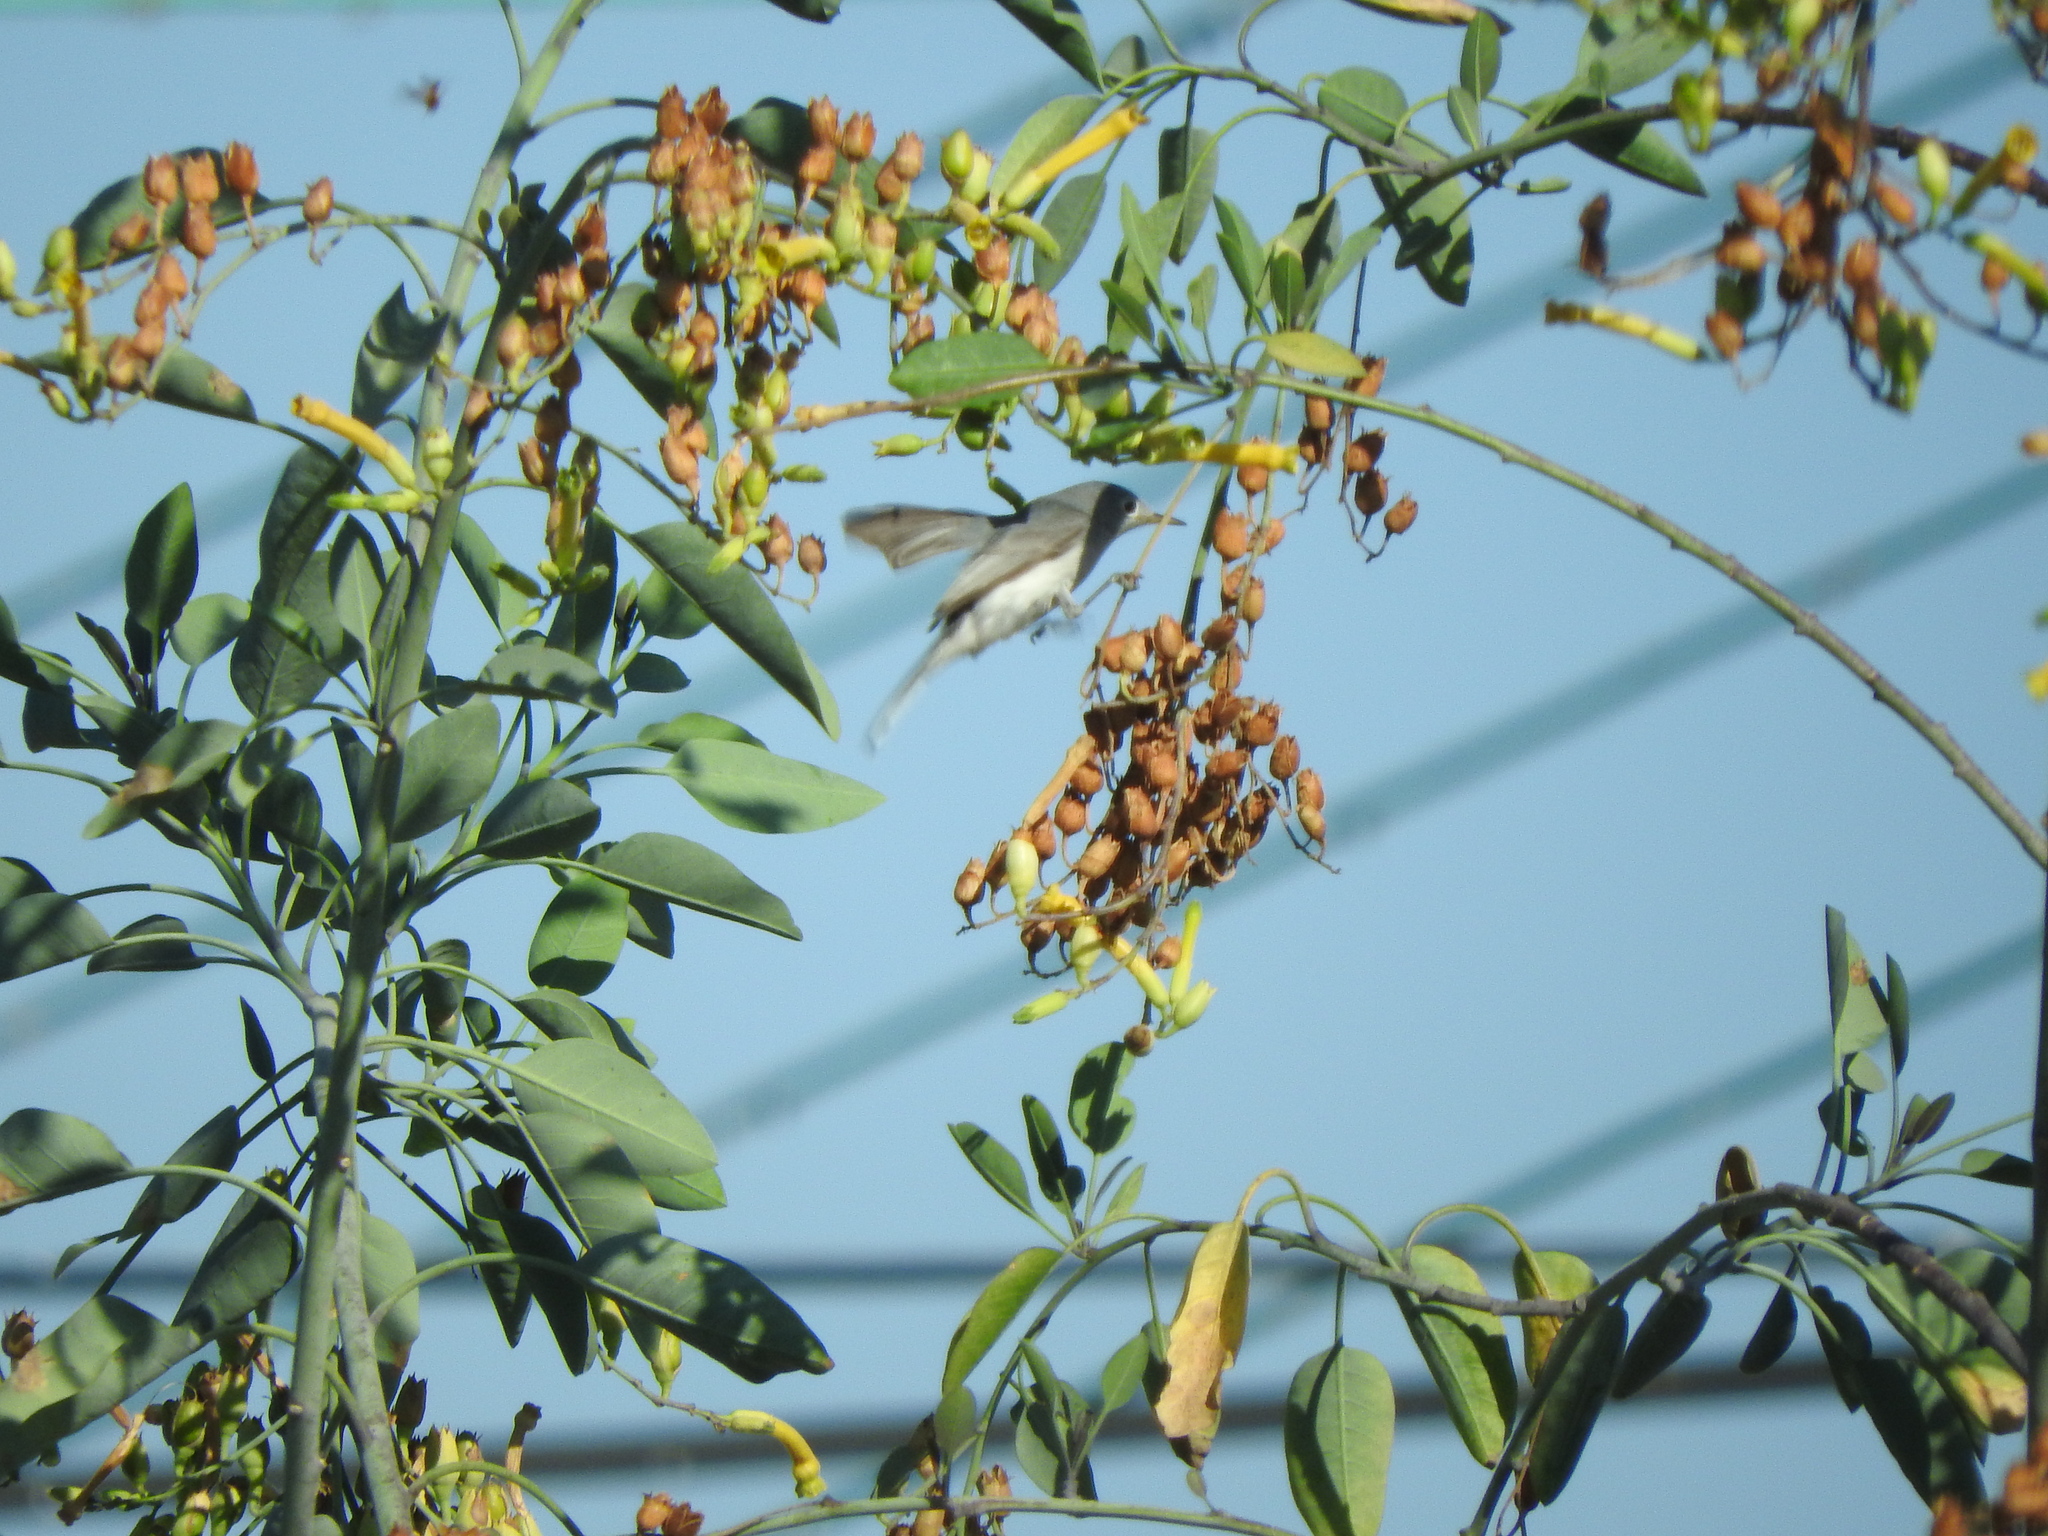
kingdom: Animalia
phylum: Chordata
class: Aves
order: Passeriformes
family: Polioptilidae
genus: Polioptila
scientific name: Polioptila caerulea
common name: Blue-gray gnatcatcher
